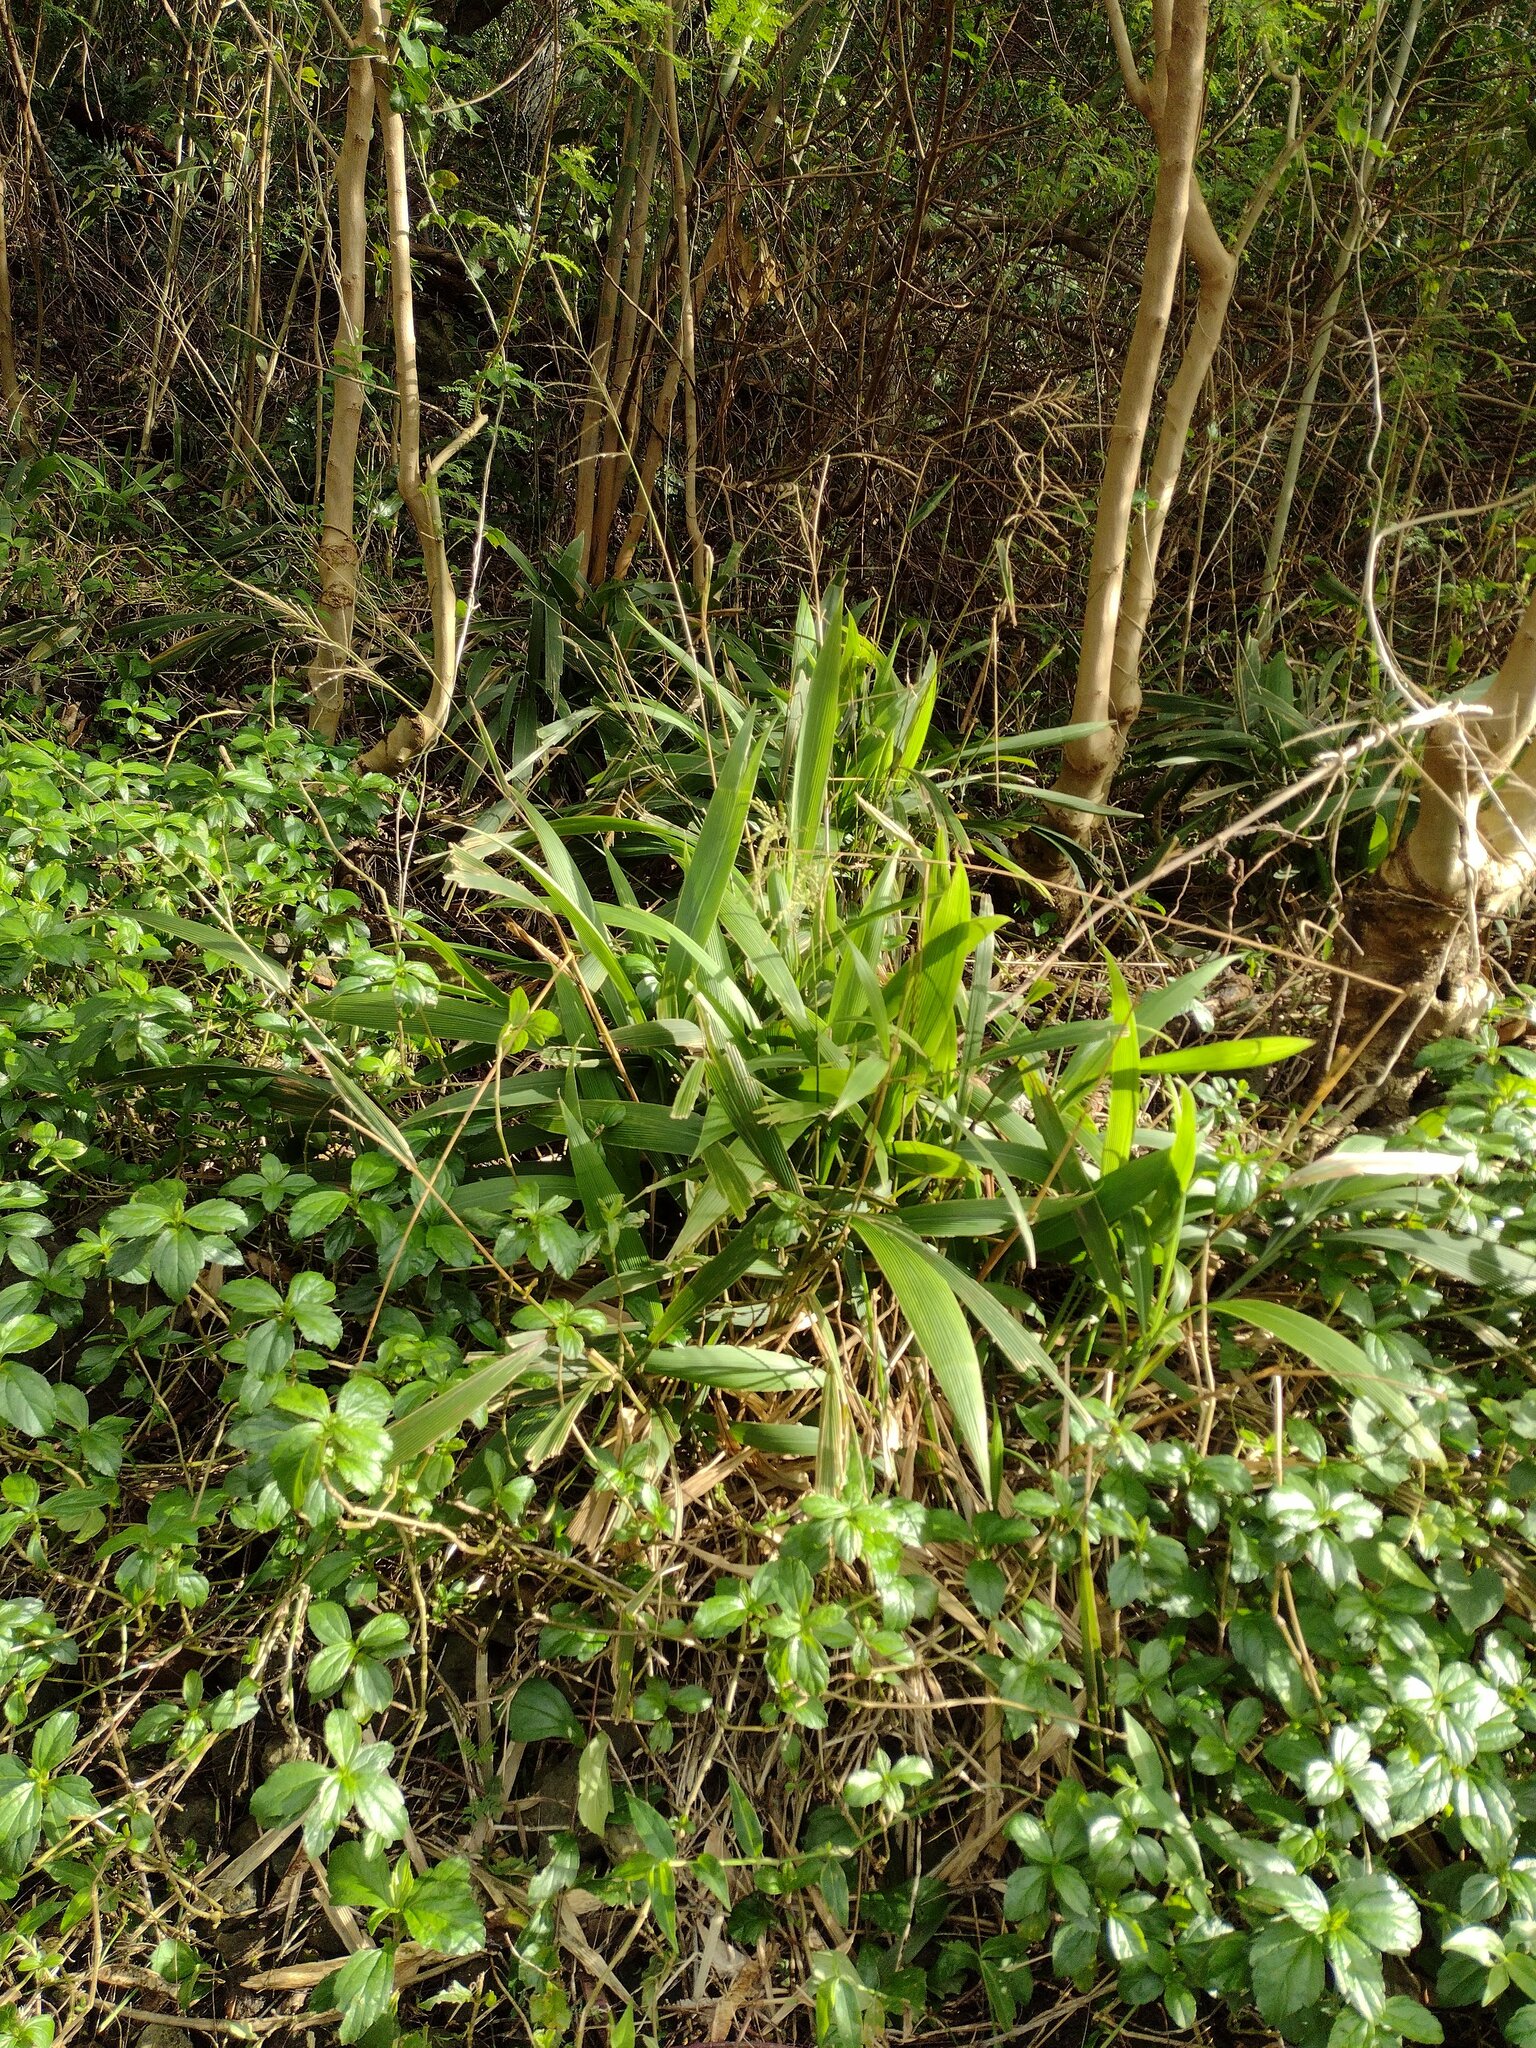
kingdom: Plantae
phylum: Tracheophyta
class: Liliopsida
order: Poales
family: Poaceae
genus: Setaria
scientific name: Setaria palmifolia
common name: Broadleaved bristlegrass
